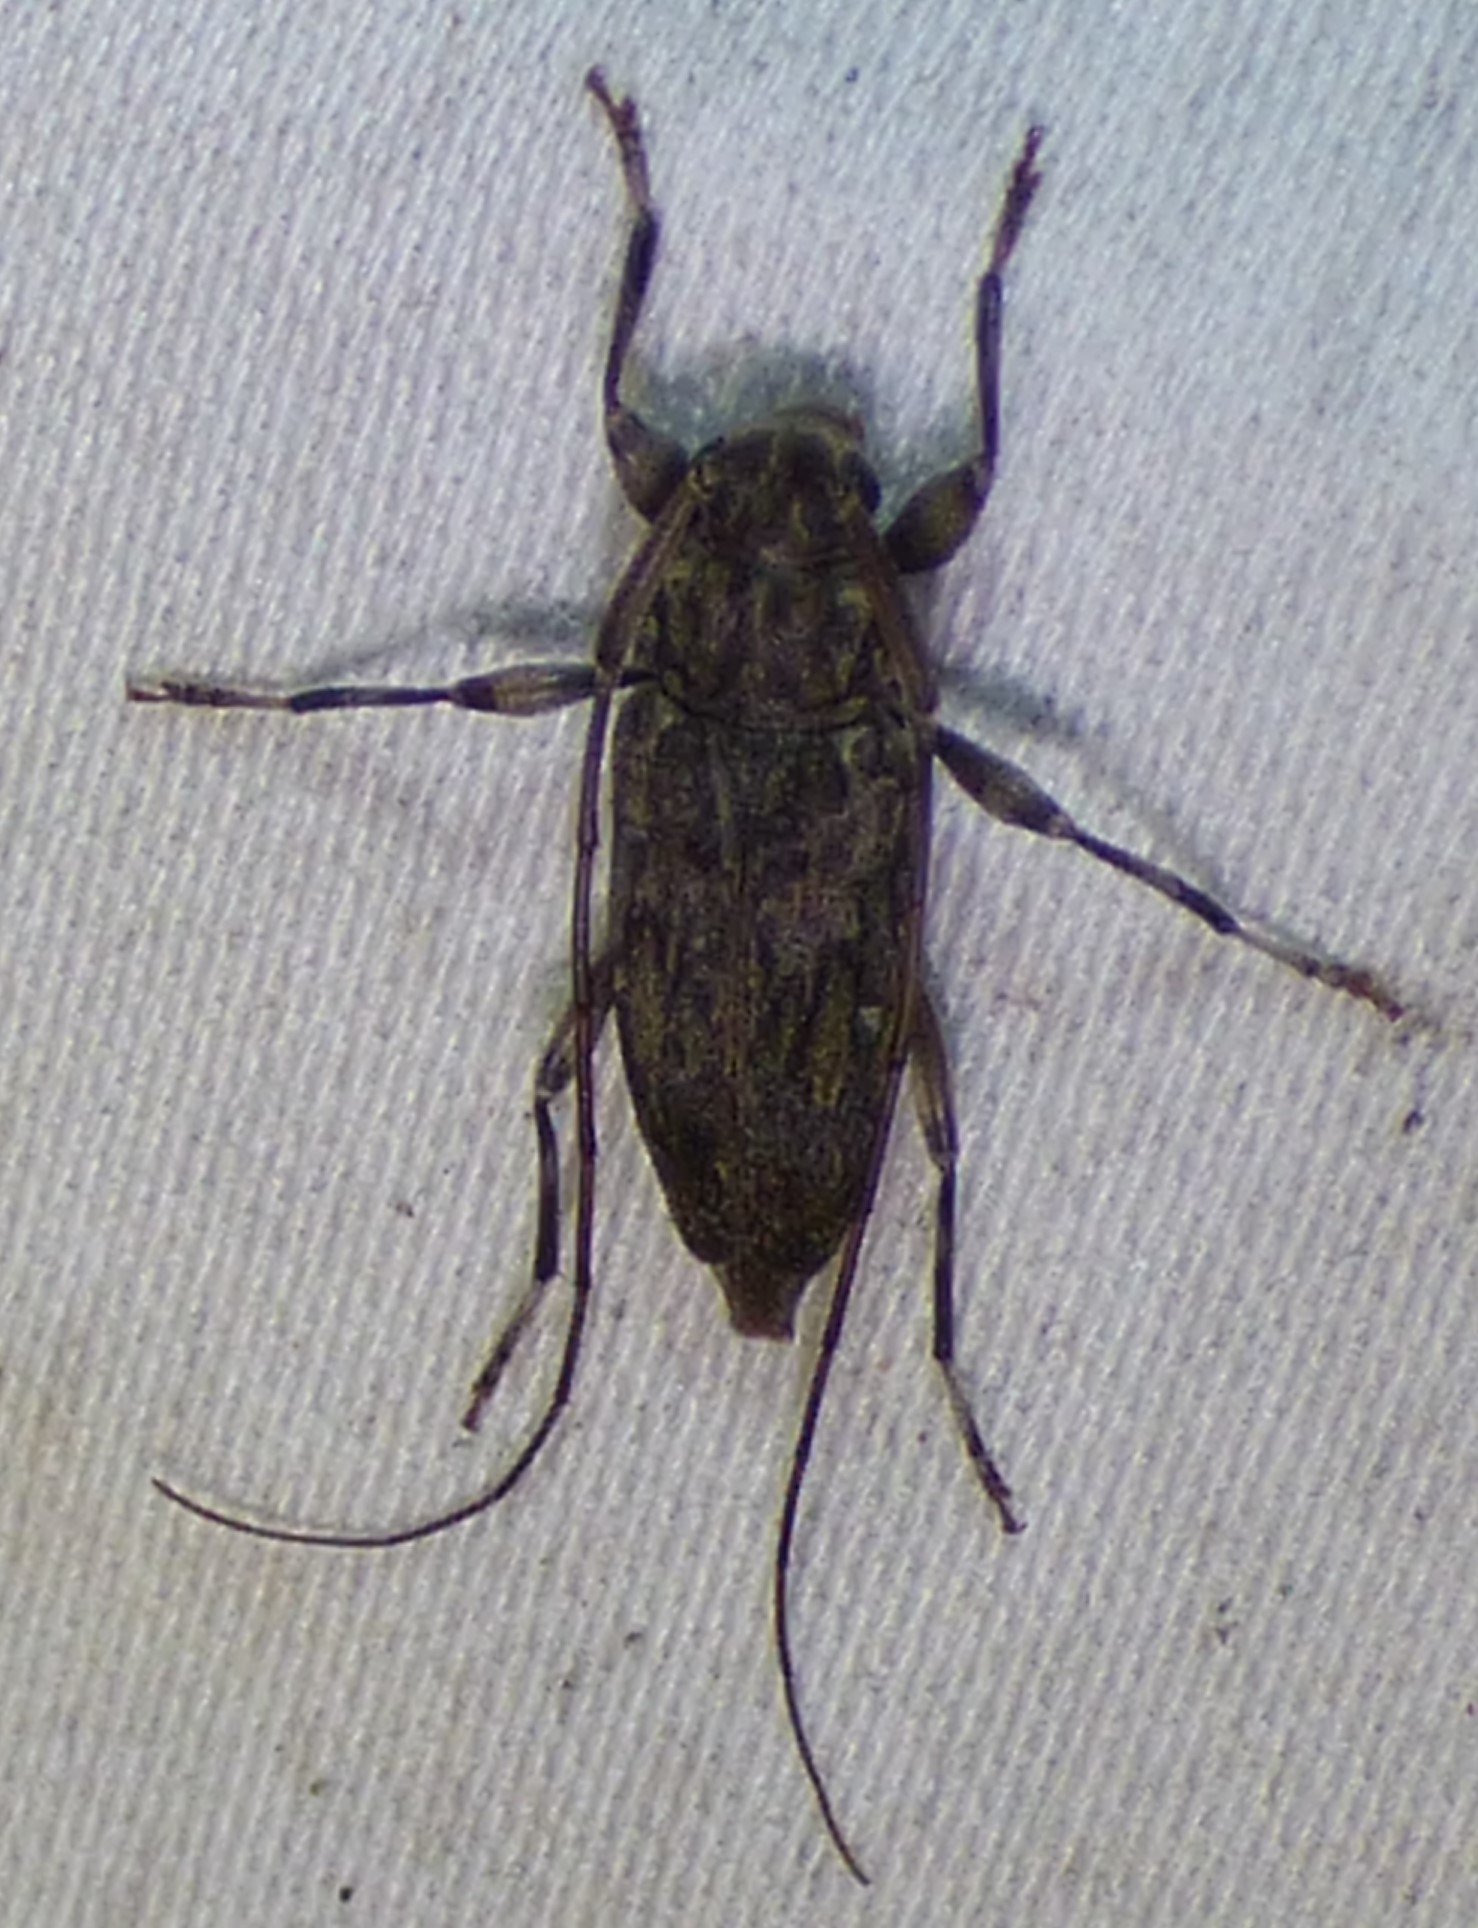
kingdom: Animalia
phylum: Arthropoda
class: Insecta
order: Coleoptera
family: Cerambycidae
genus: Lepturges
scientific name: Lepturges confluens
